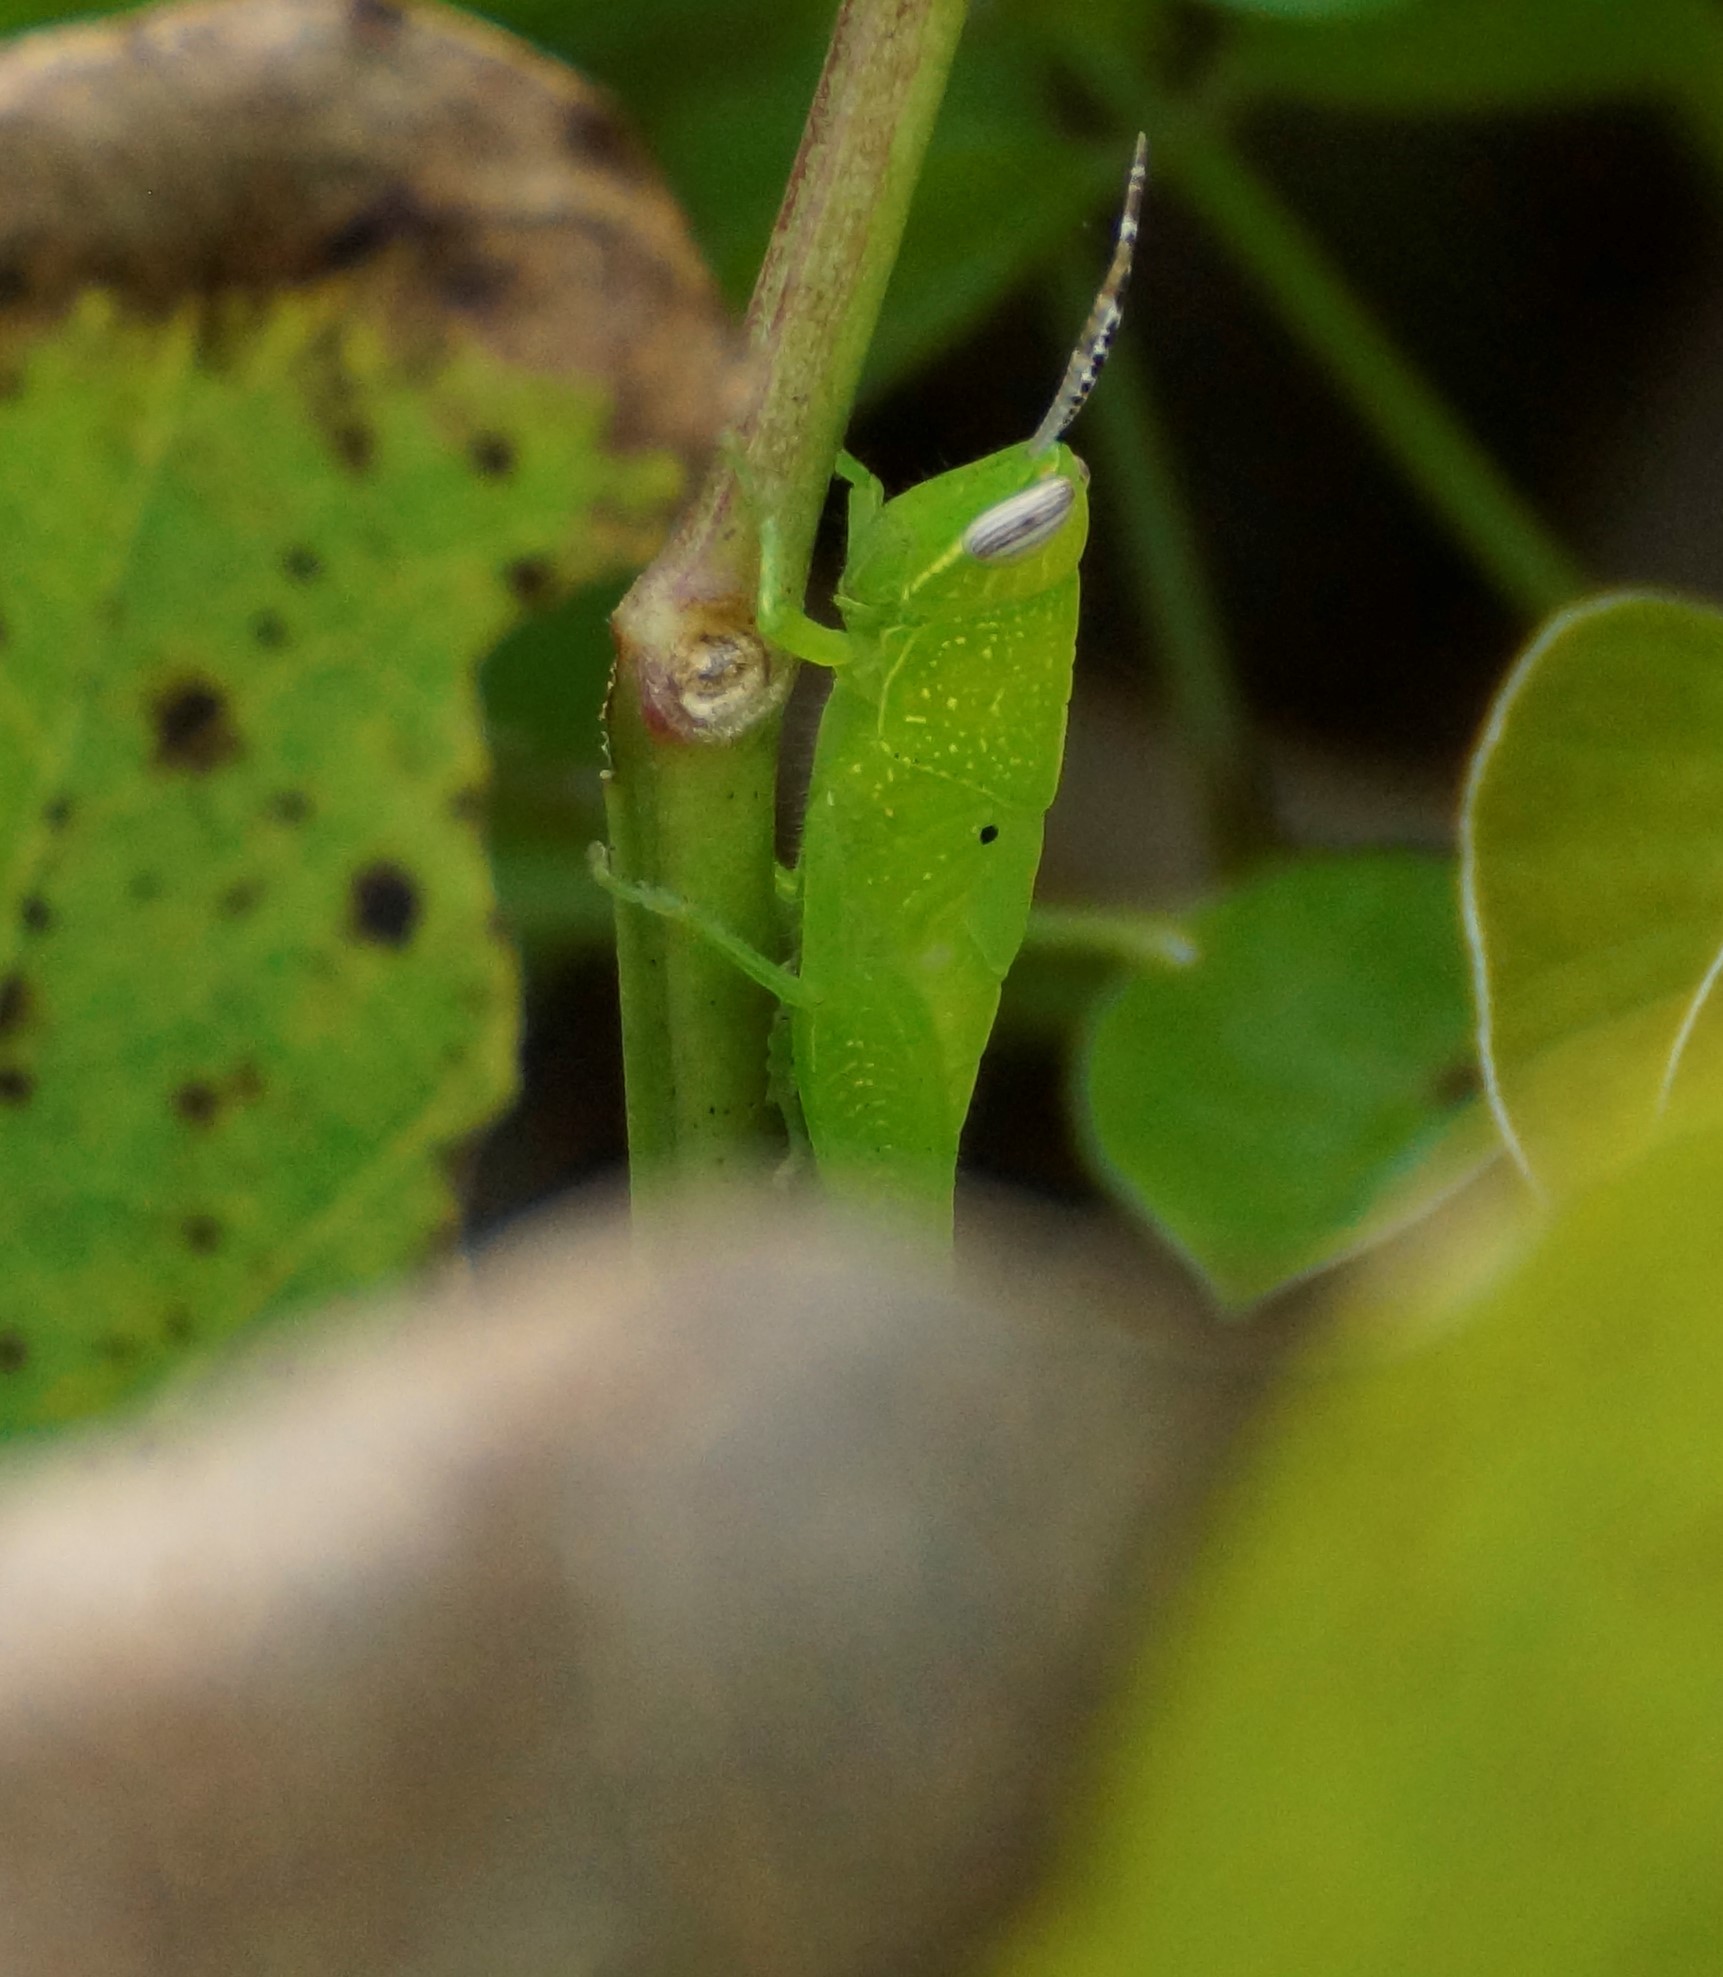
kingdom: Animalia
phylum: Arthropoda
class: Insecta
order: Orthoptera
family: Acrididae
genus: Stenocatantops
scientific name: Stenocatantops angustifrons
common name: Common tropical sharptail
